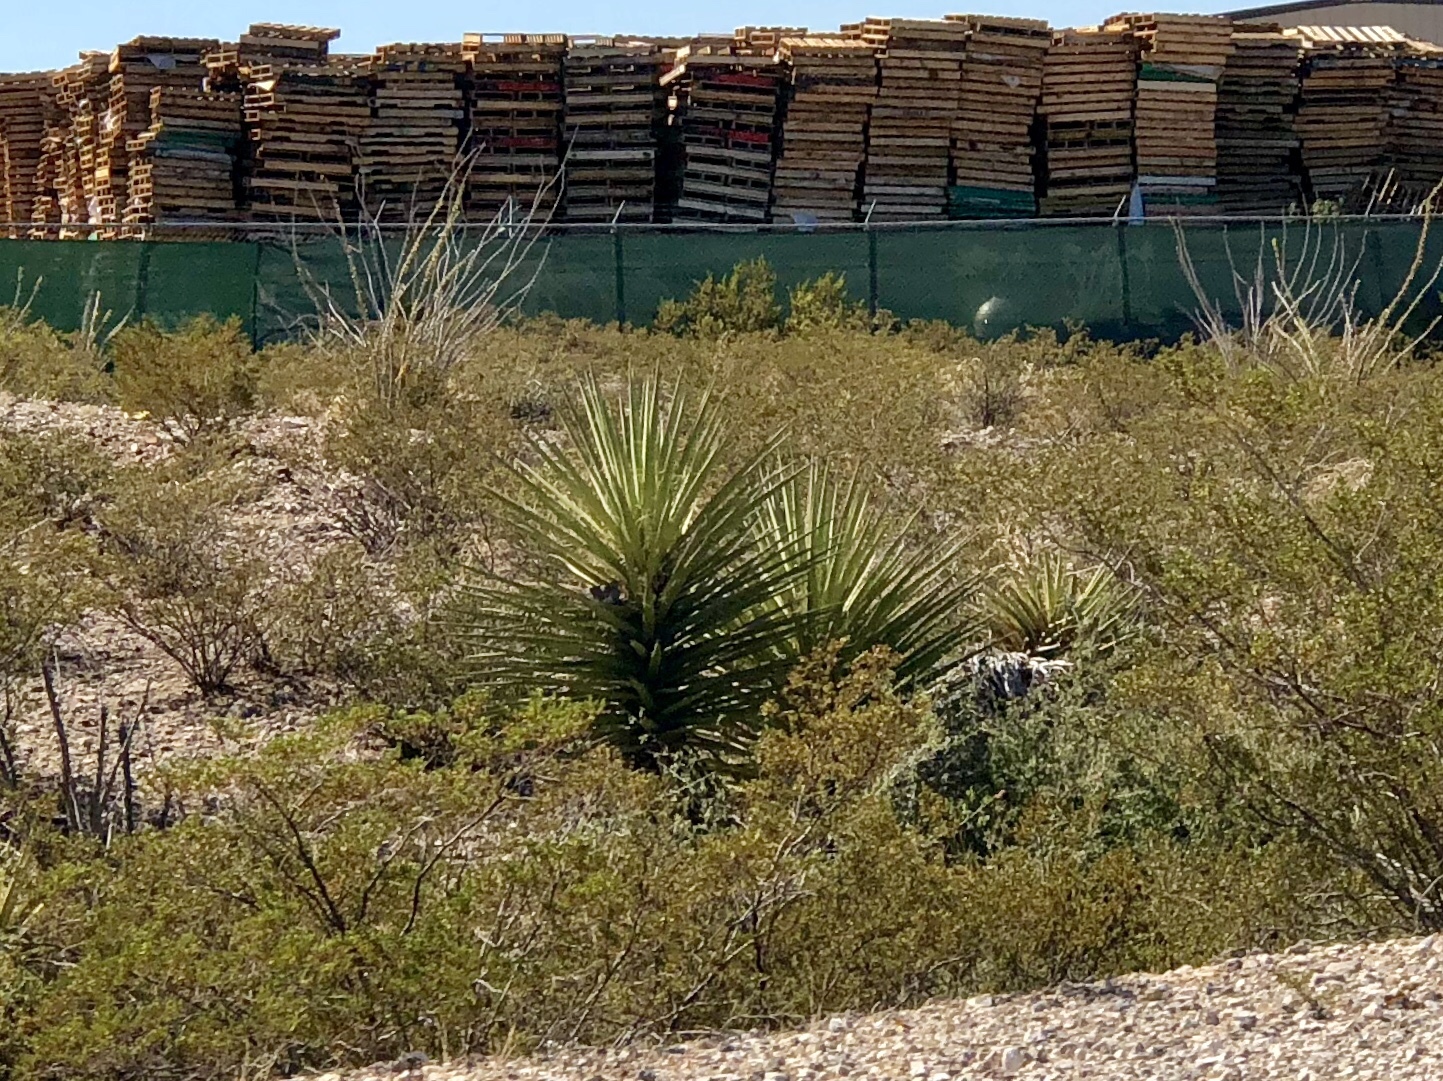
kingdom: Plantae
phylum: Tracheophyta
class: Liliopsida
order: Asparagales
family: Asparagaceae
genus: Yucca
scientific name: Yucca treculiana
